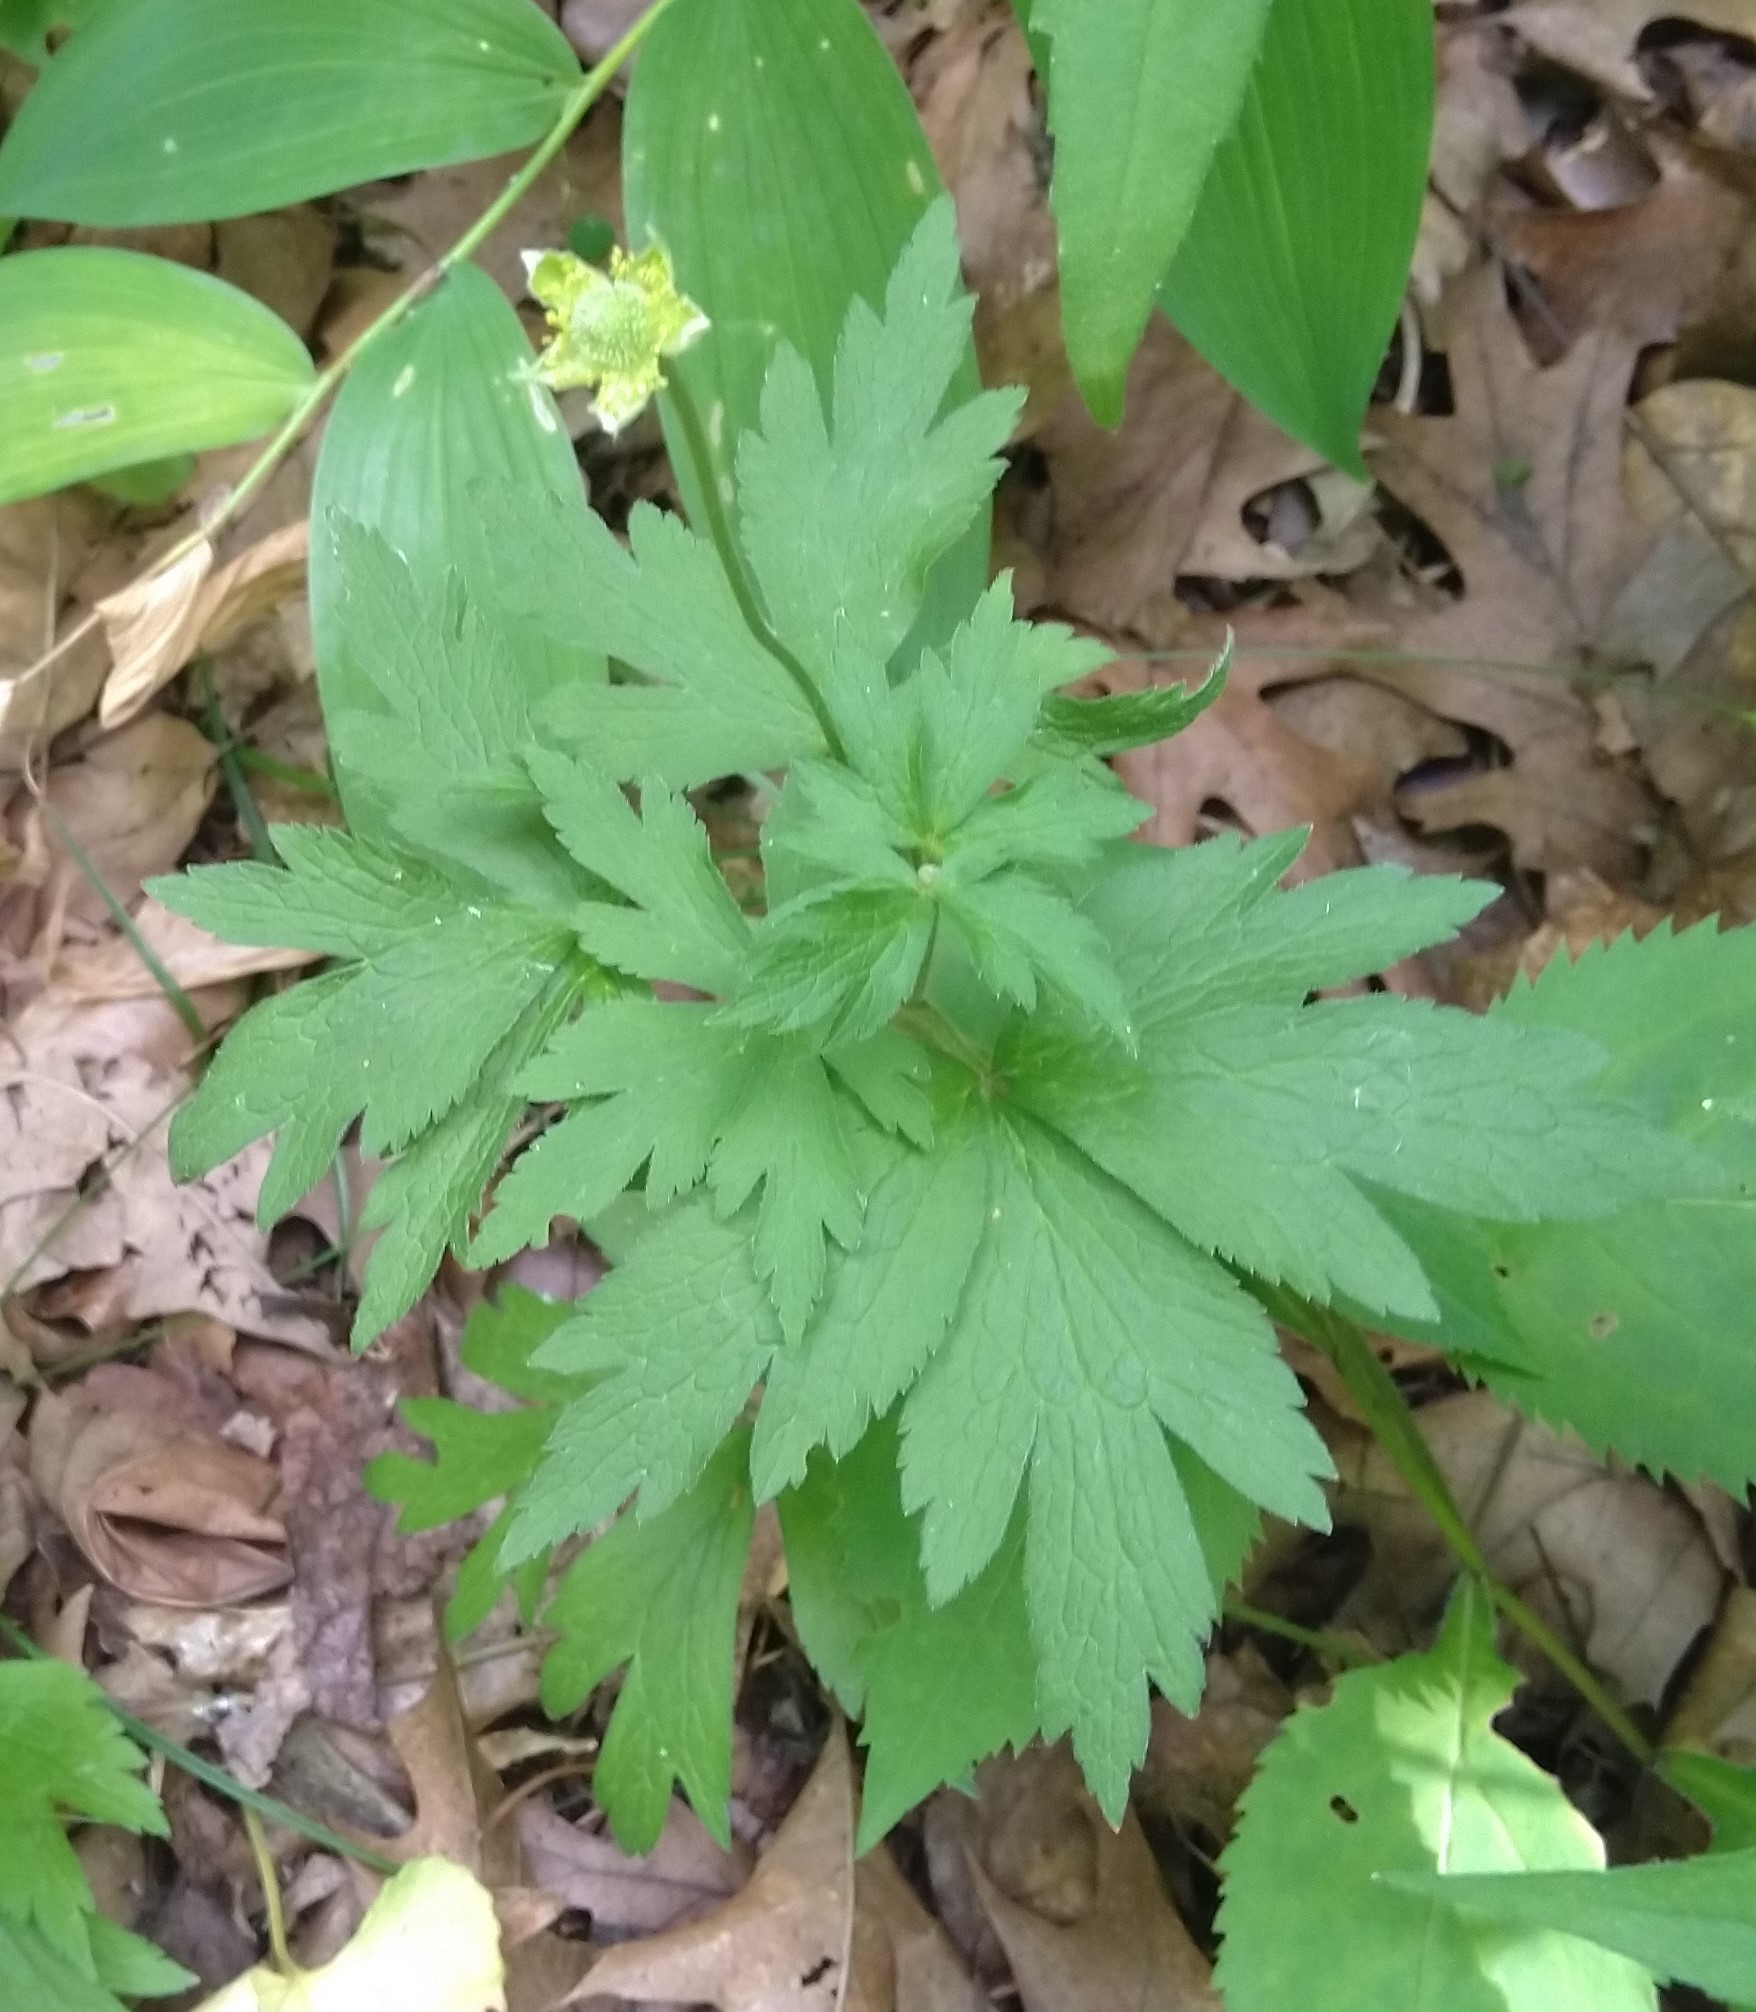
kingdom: Plantae
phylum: Tracheophyta
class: Magnoliopsida
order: Ranunculales
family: Ranunculaceae
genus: Anemone
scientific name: Anemone virginiana
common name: Tall anemone
